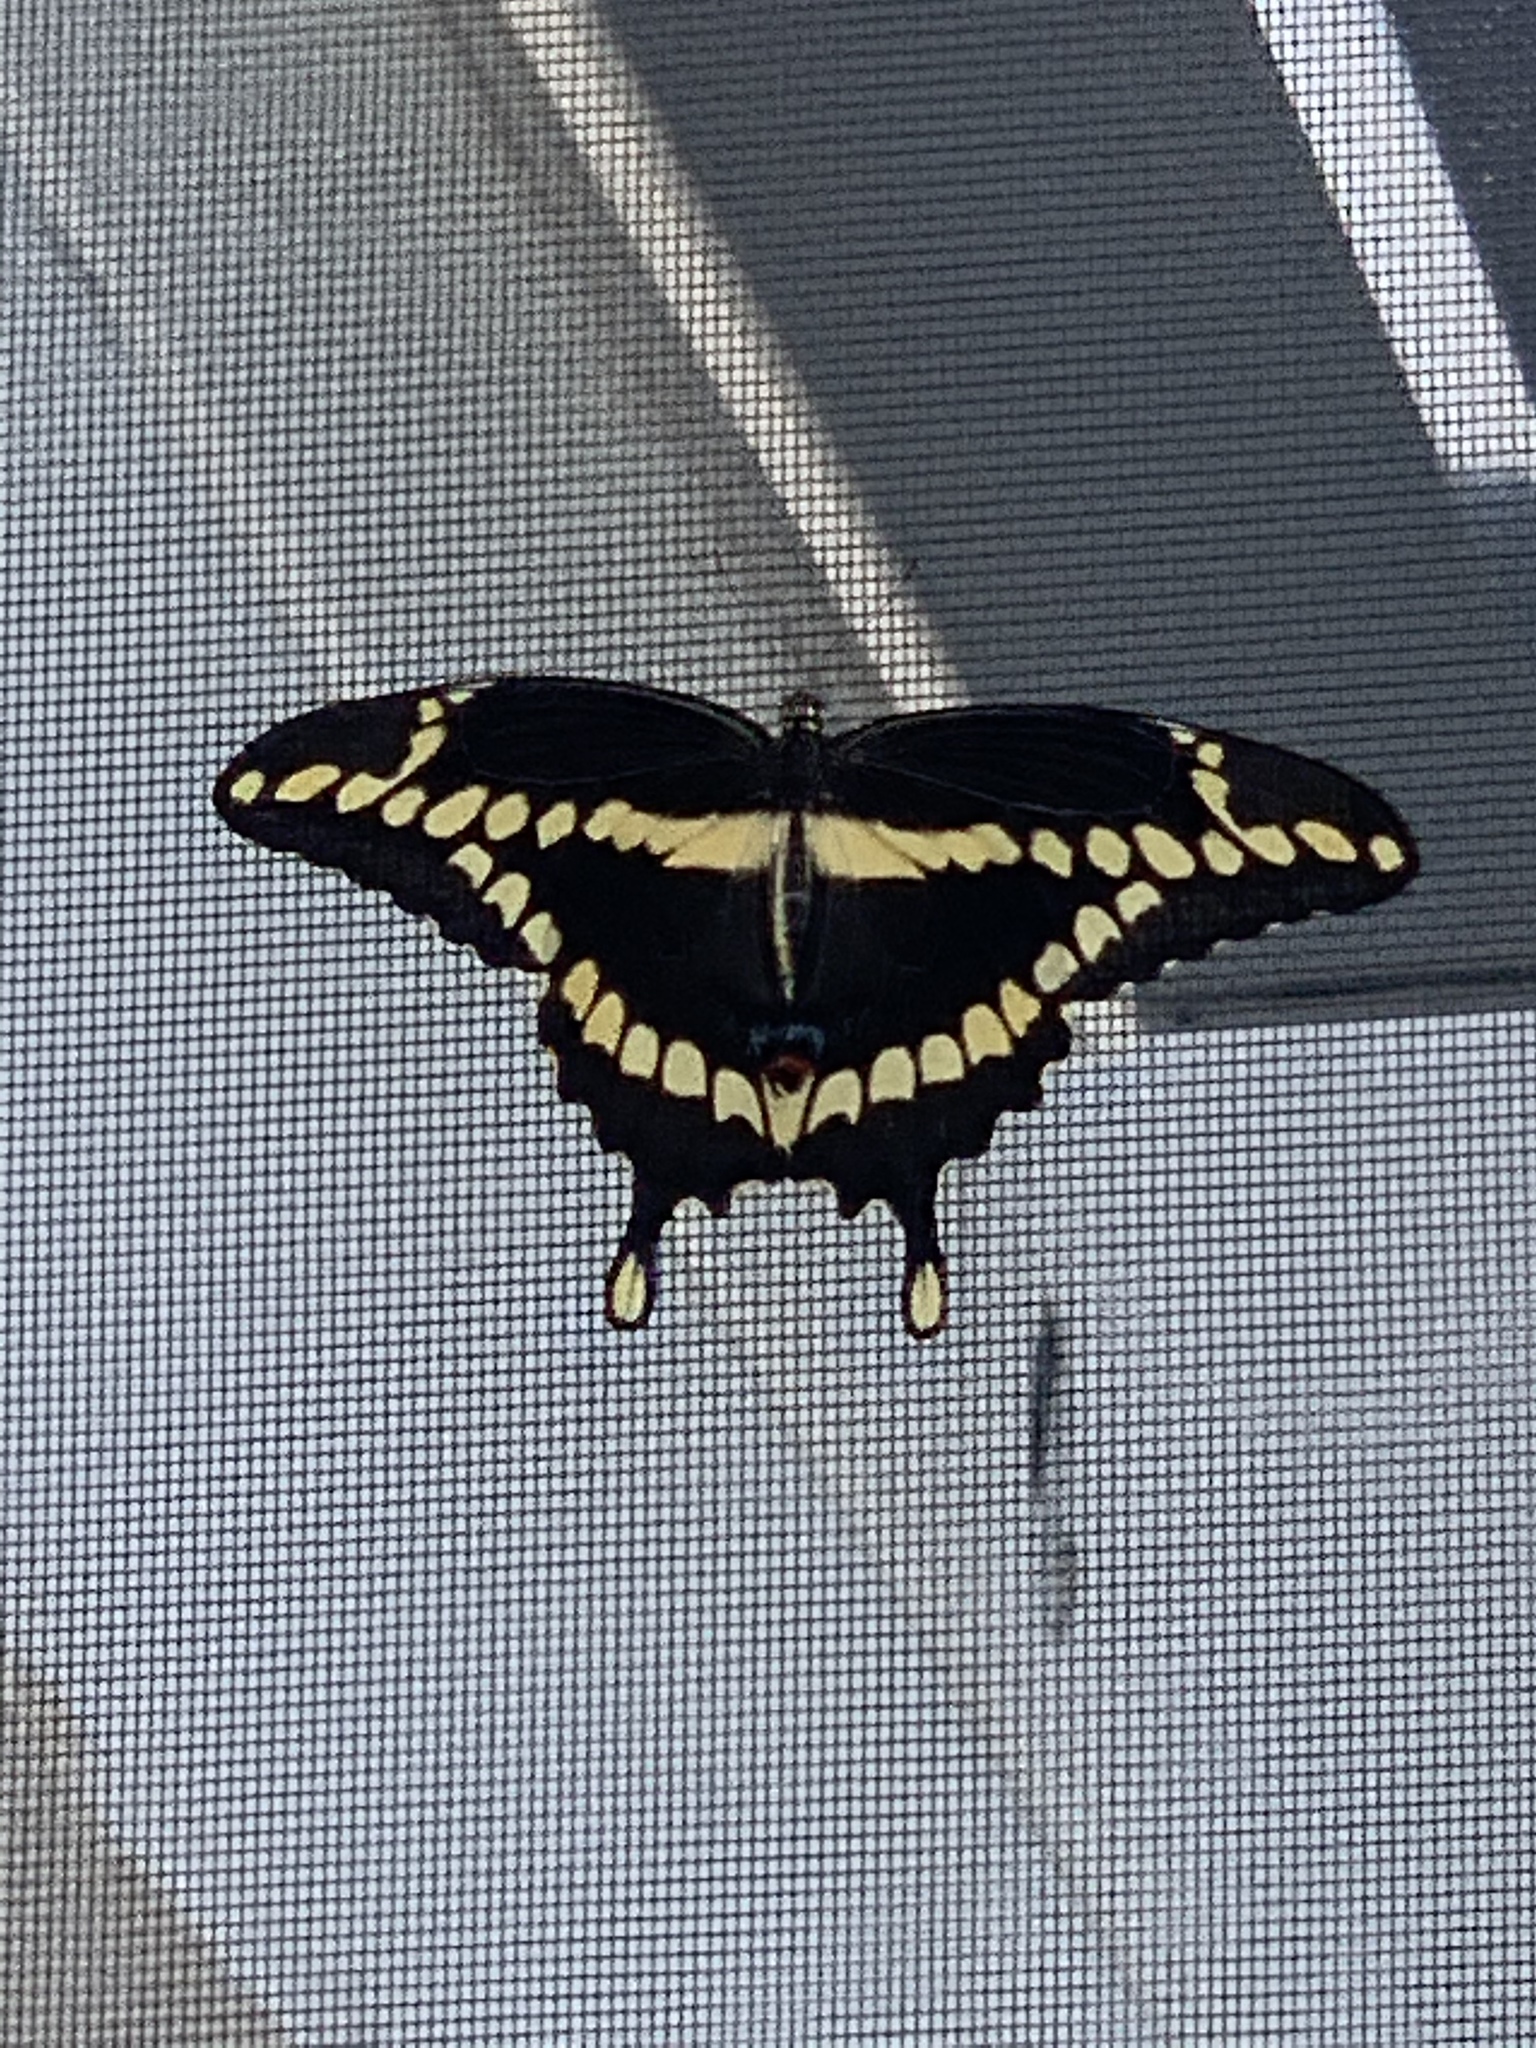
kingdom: Animalia
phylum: Arthropoda
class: Insecta
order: Lepidoptera
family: Papilionidae
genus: Papilio
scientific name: Papilio cresphontes
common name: Giant swallowtail
